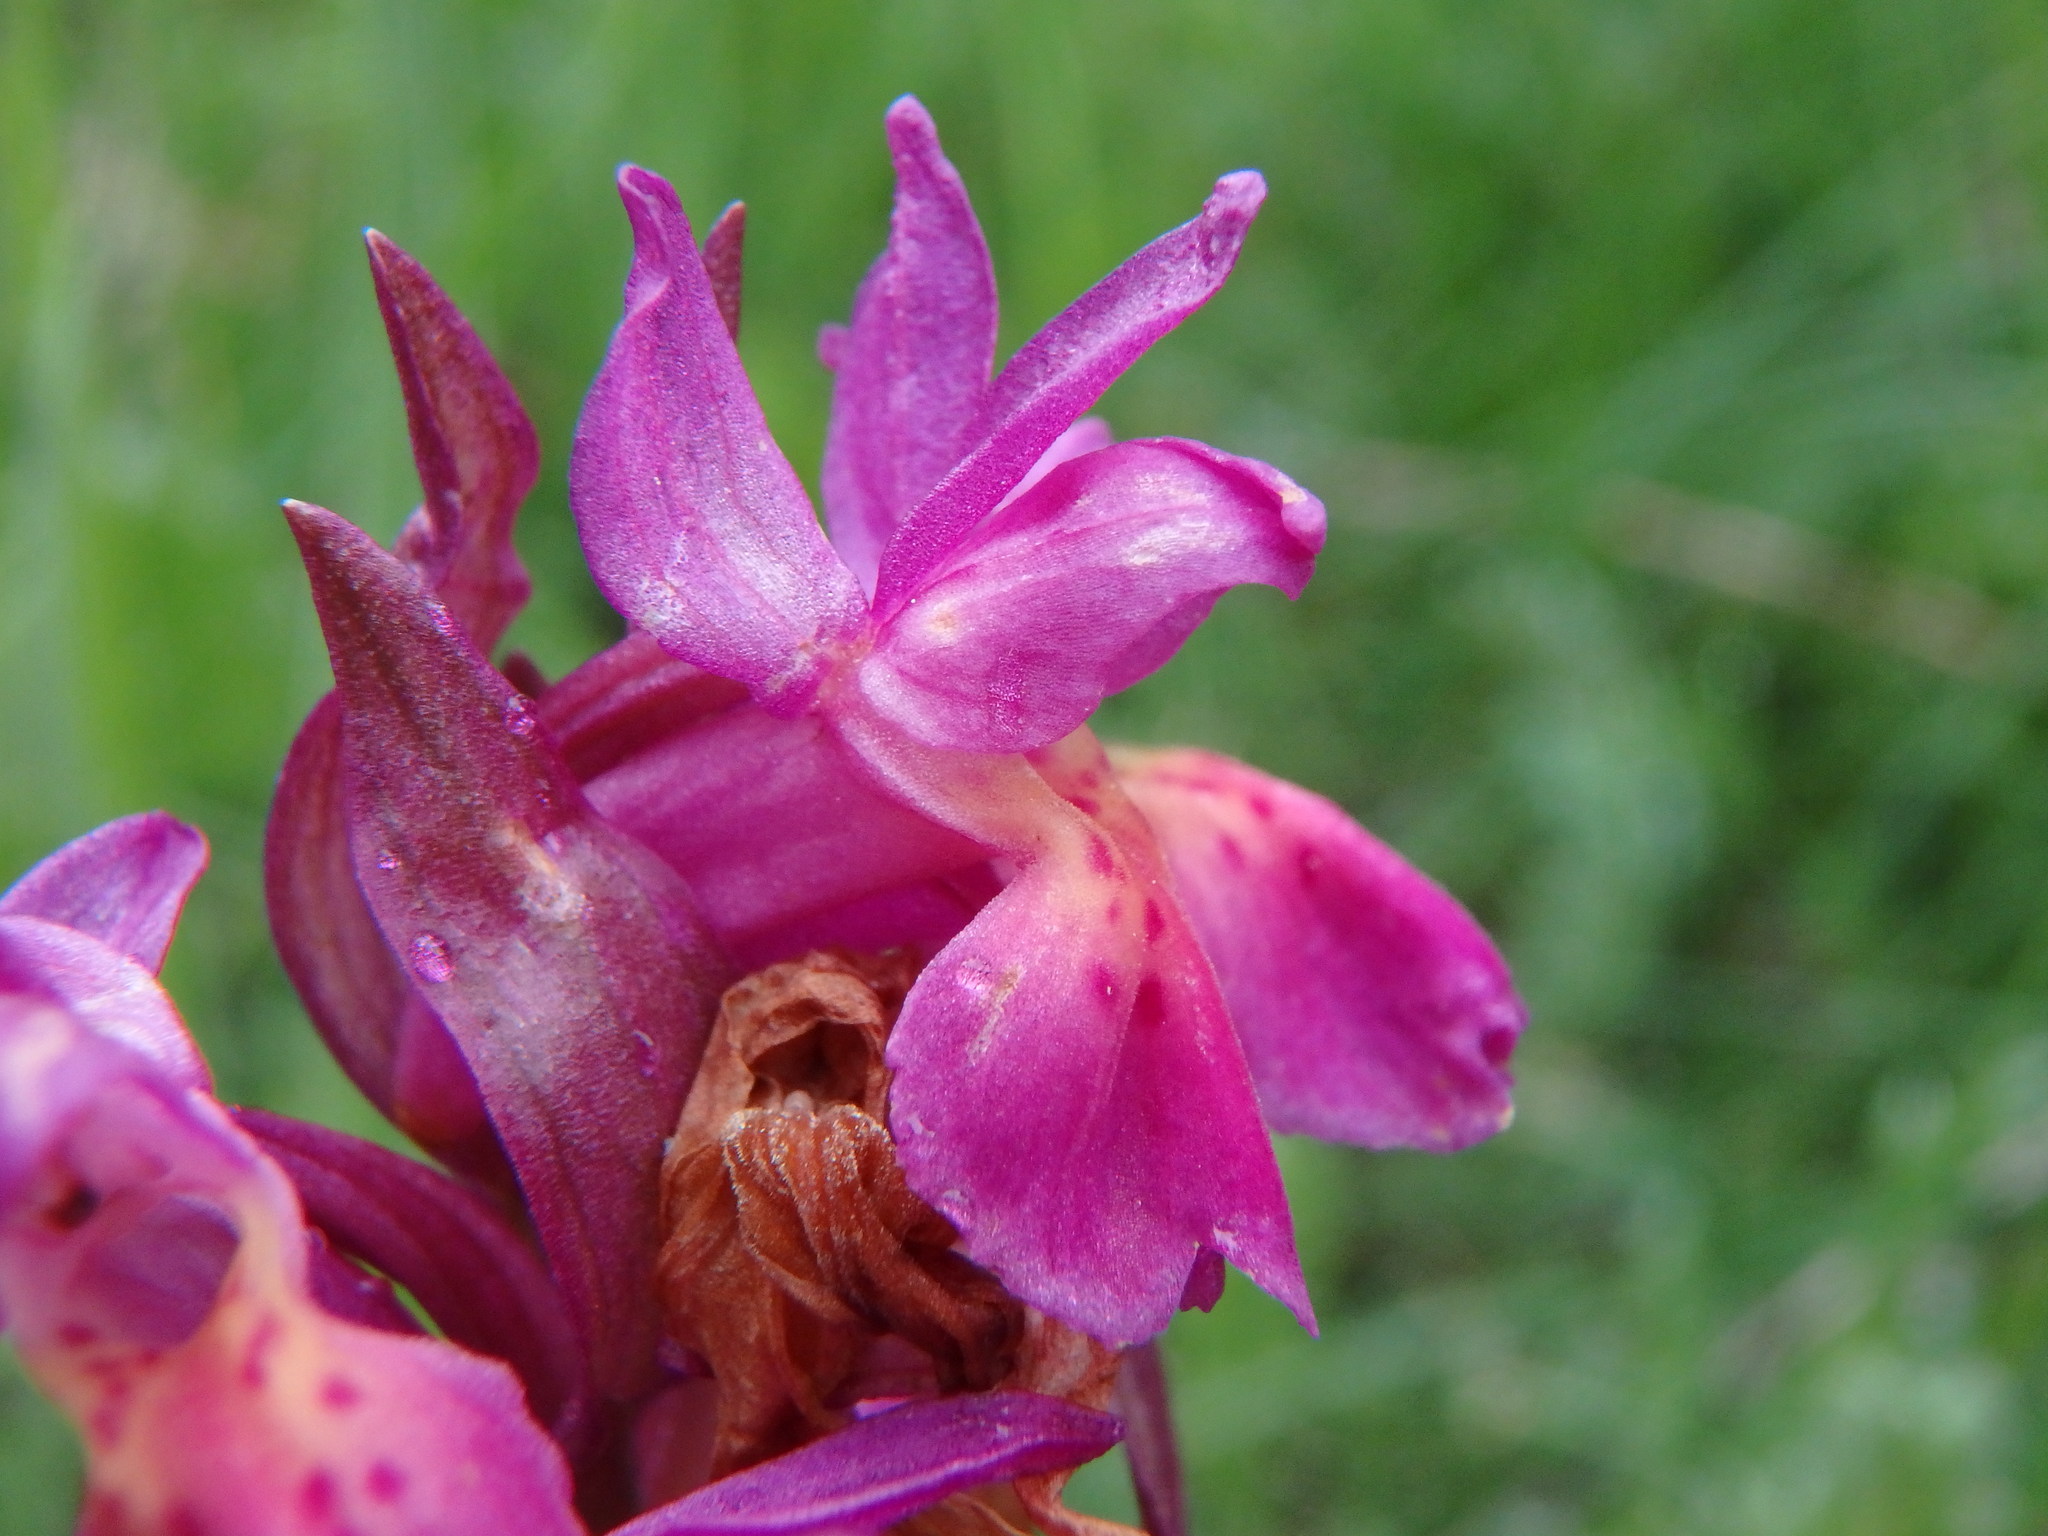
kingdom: Plantae
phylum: Tracheophyta
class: Liliopsida
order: Asparagales
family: Orchidaceae
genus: Dactylorhiza
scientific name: Dactylorhiza sambucina
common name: Elder-flowered orchid
